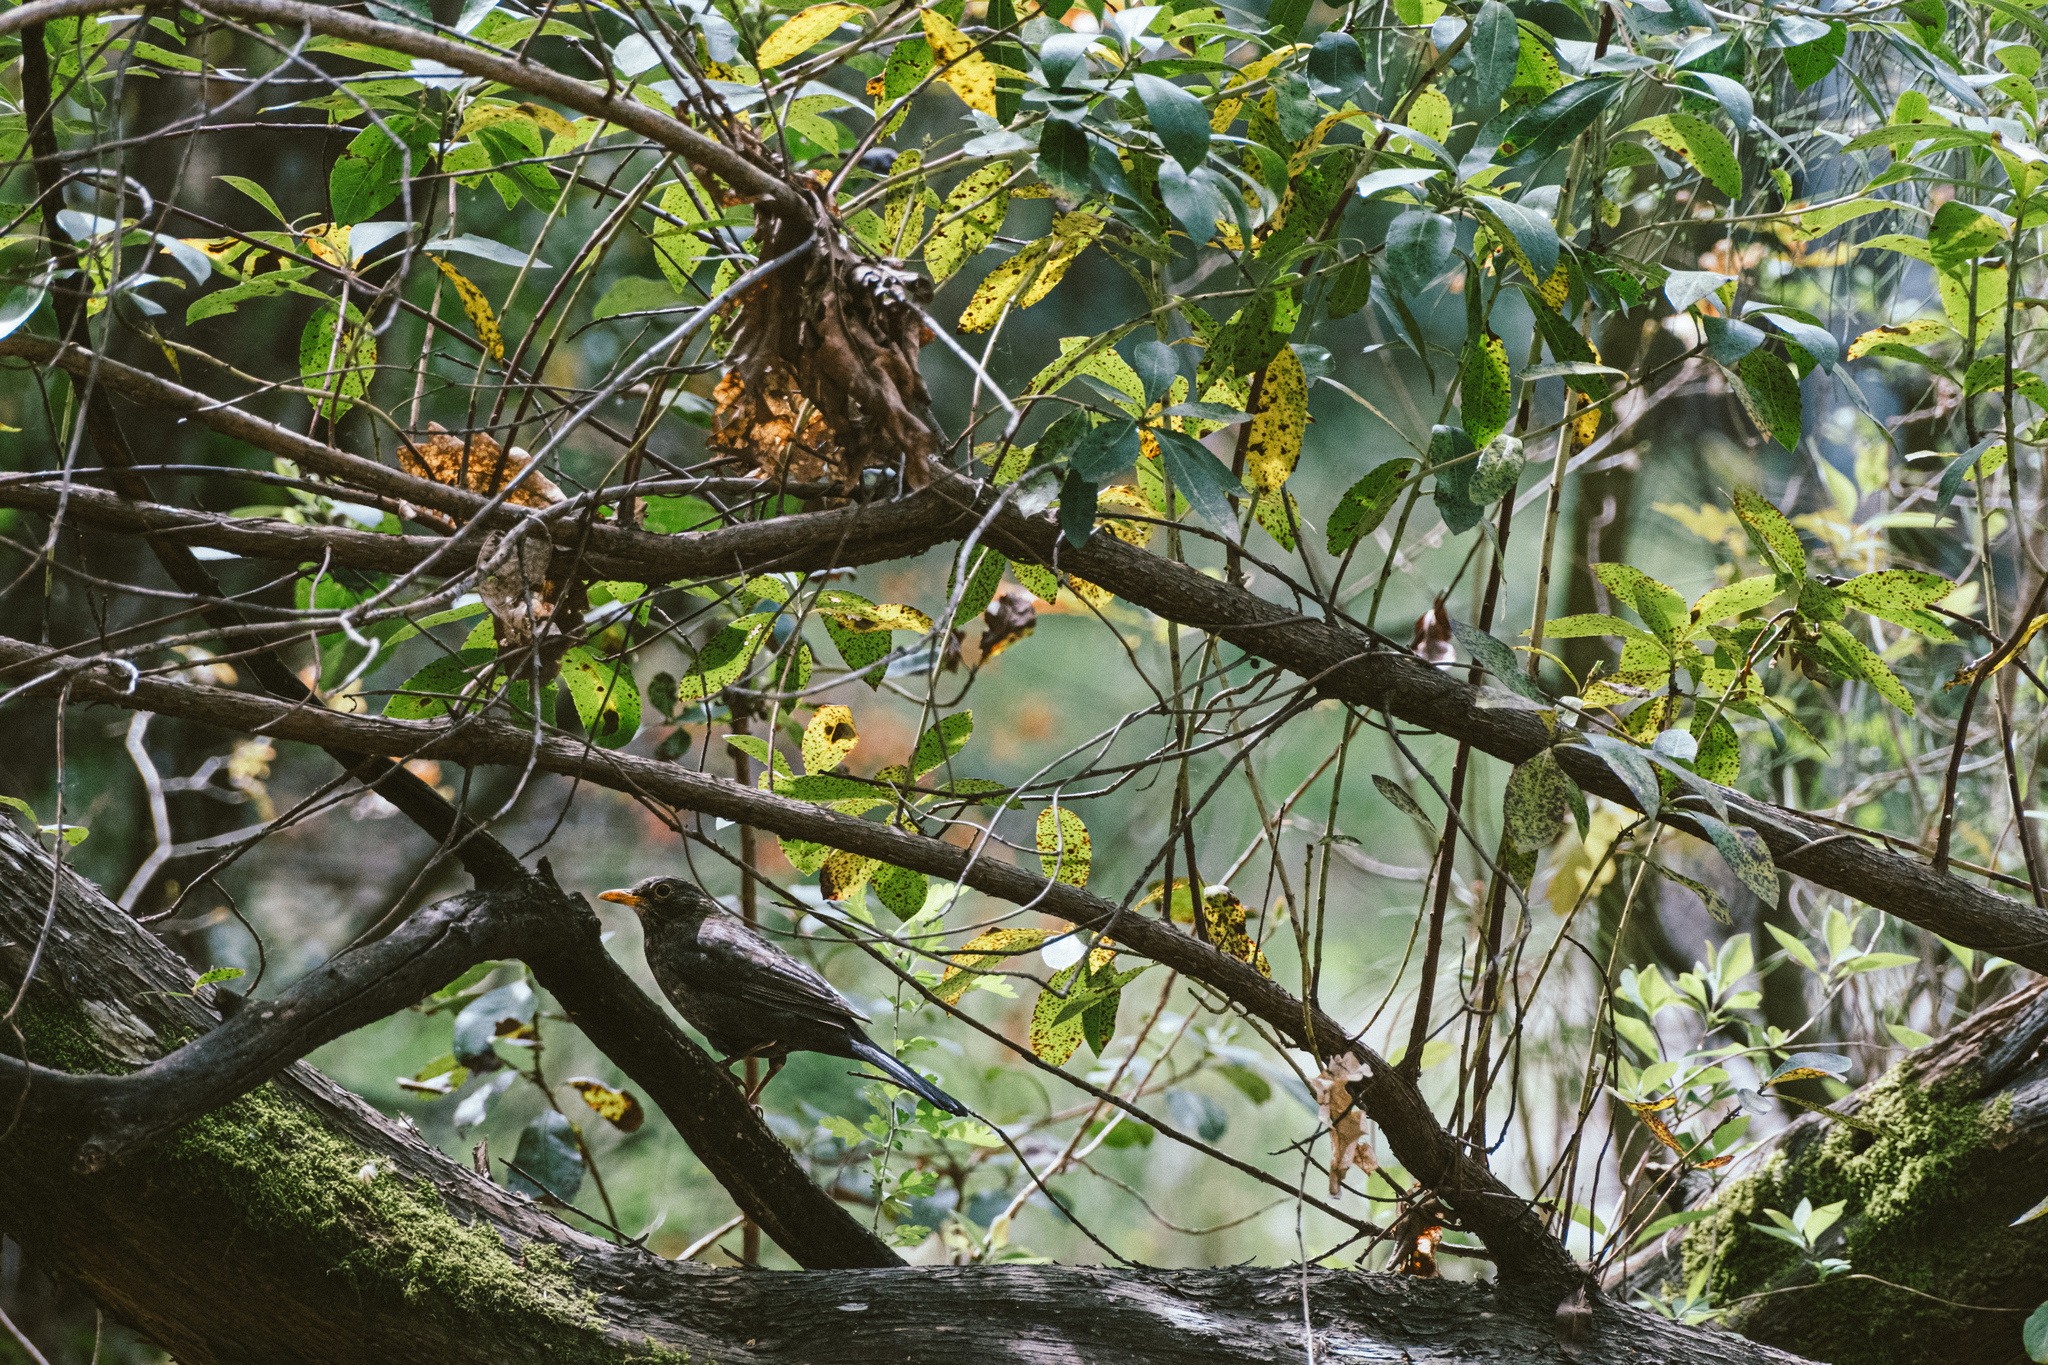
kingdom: Animalia
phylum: Chordata
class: Aves
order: Passeriformes
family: Turdidae
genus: Turdus
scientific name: Turdus merula
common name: Common blackbird
